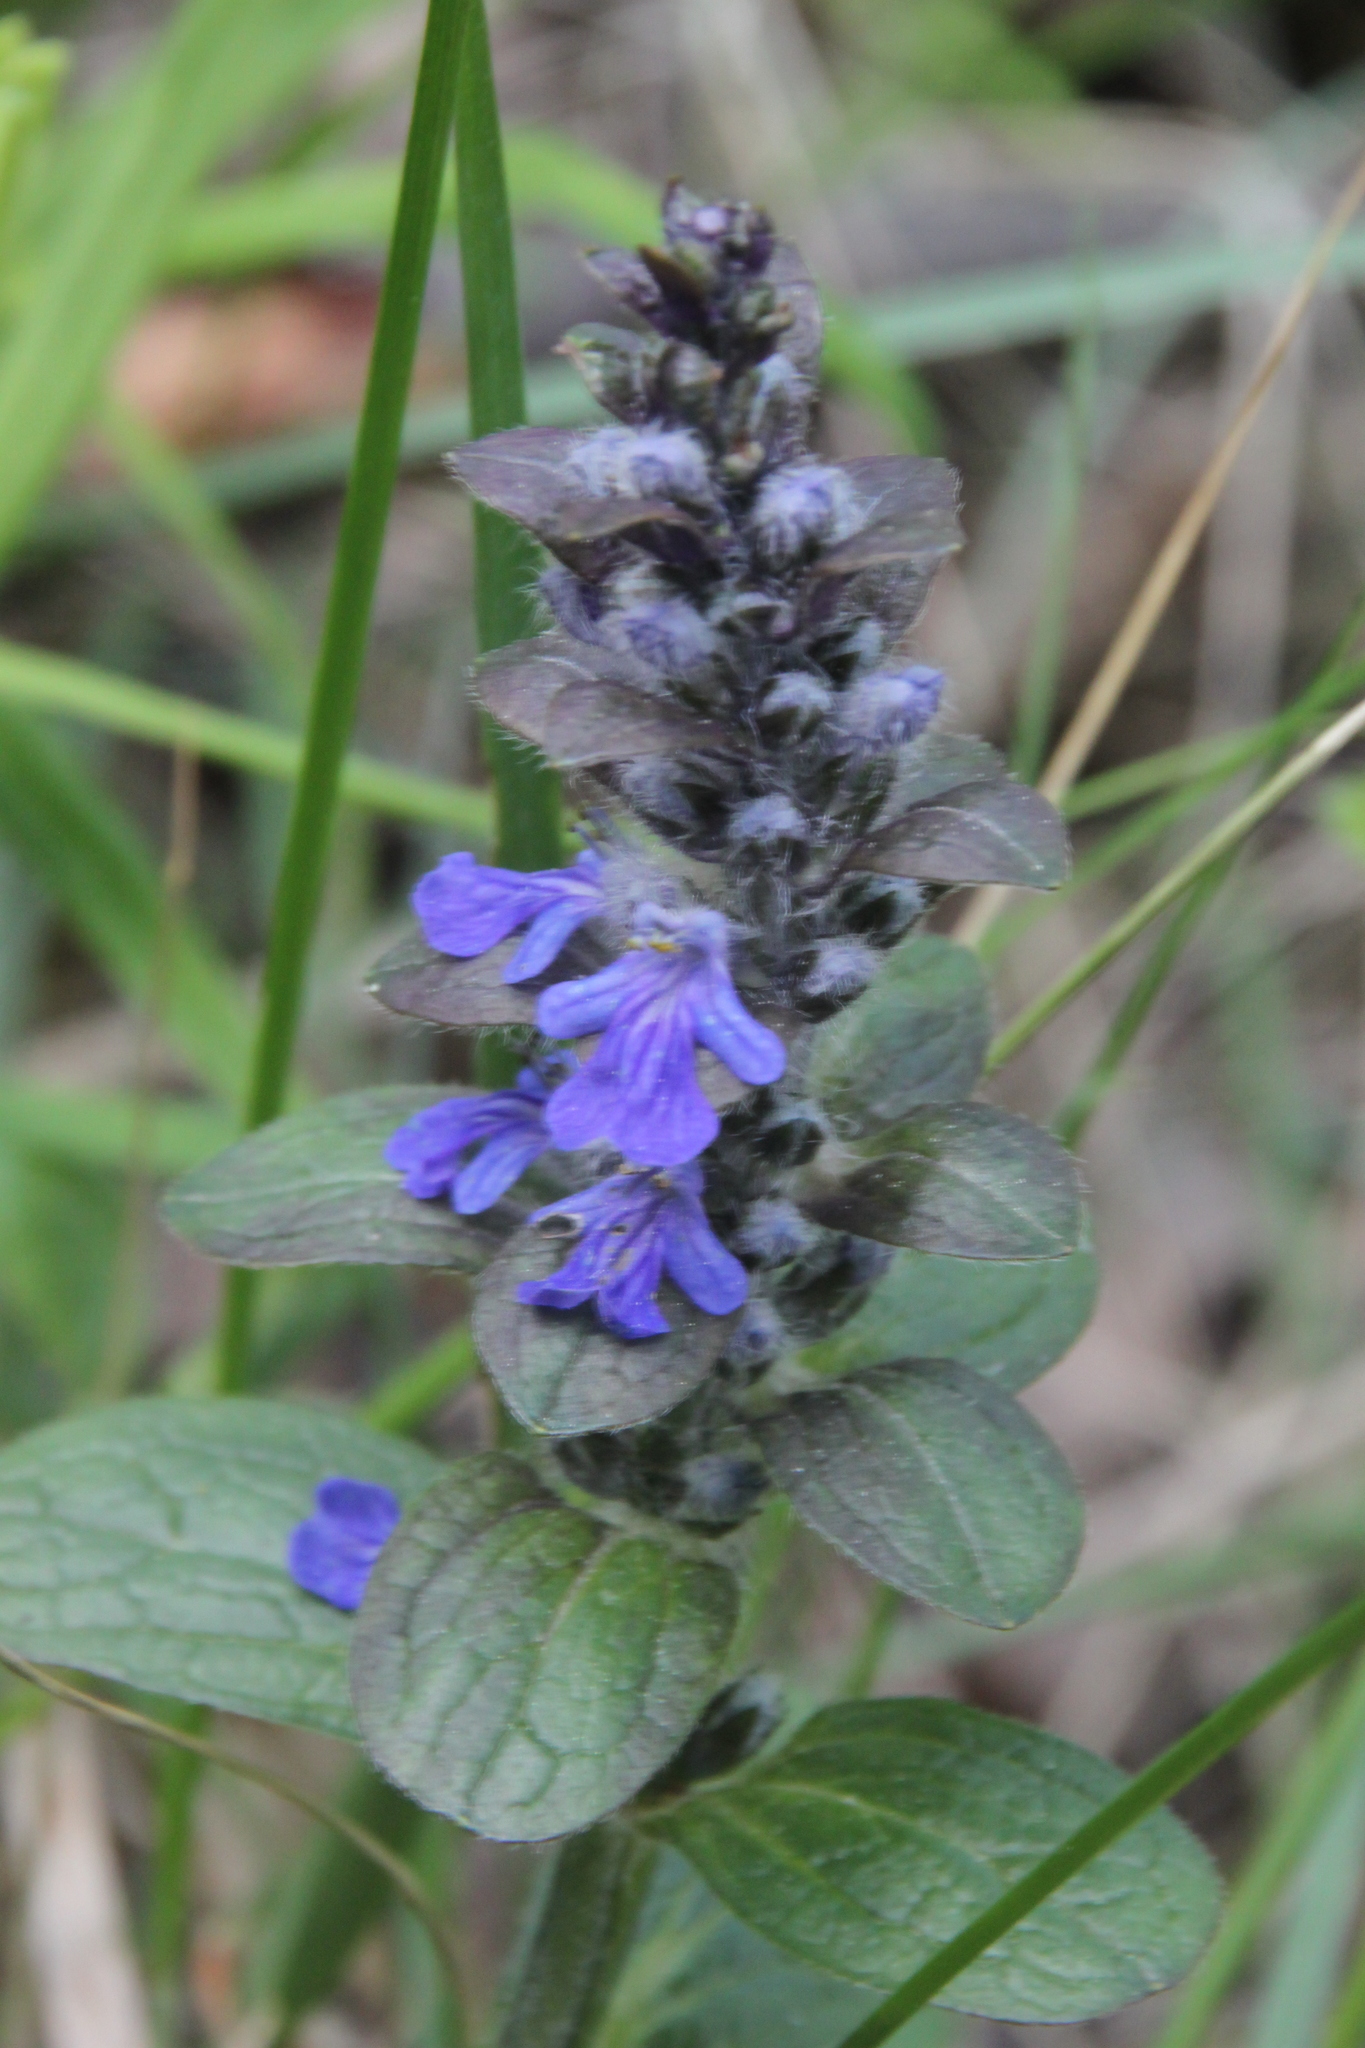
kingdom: Plantae
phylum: Tracheophyta
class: Magnoliopsida
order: Lamiales
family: Lamiaceae
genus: Ajuga
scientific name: Ajuga reptans
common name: Bugle
